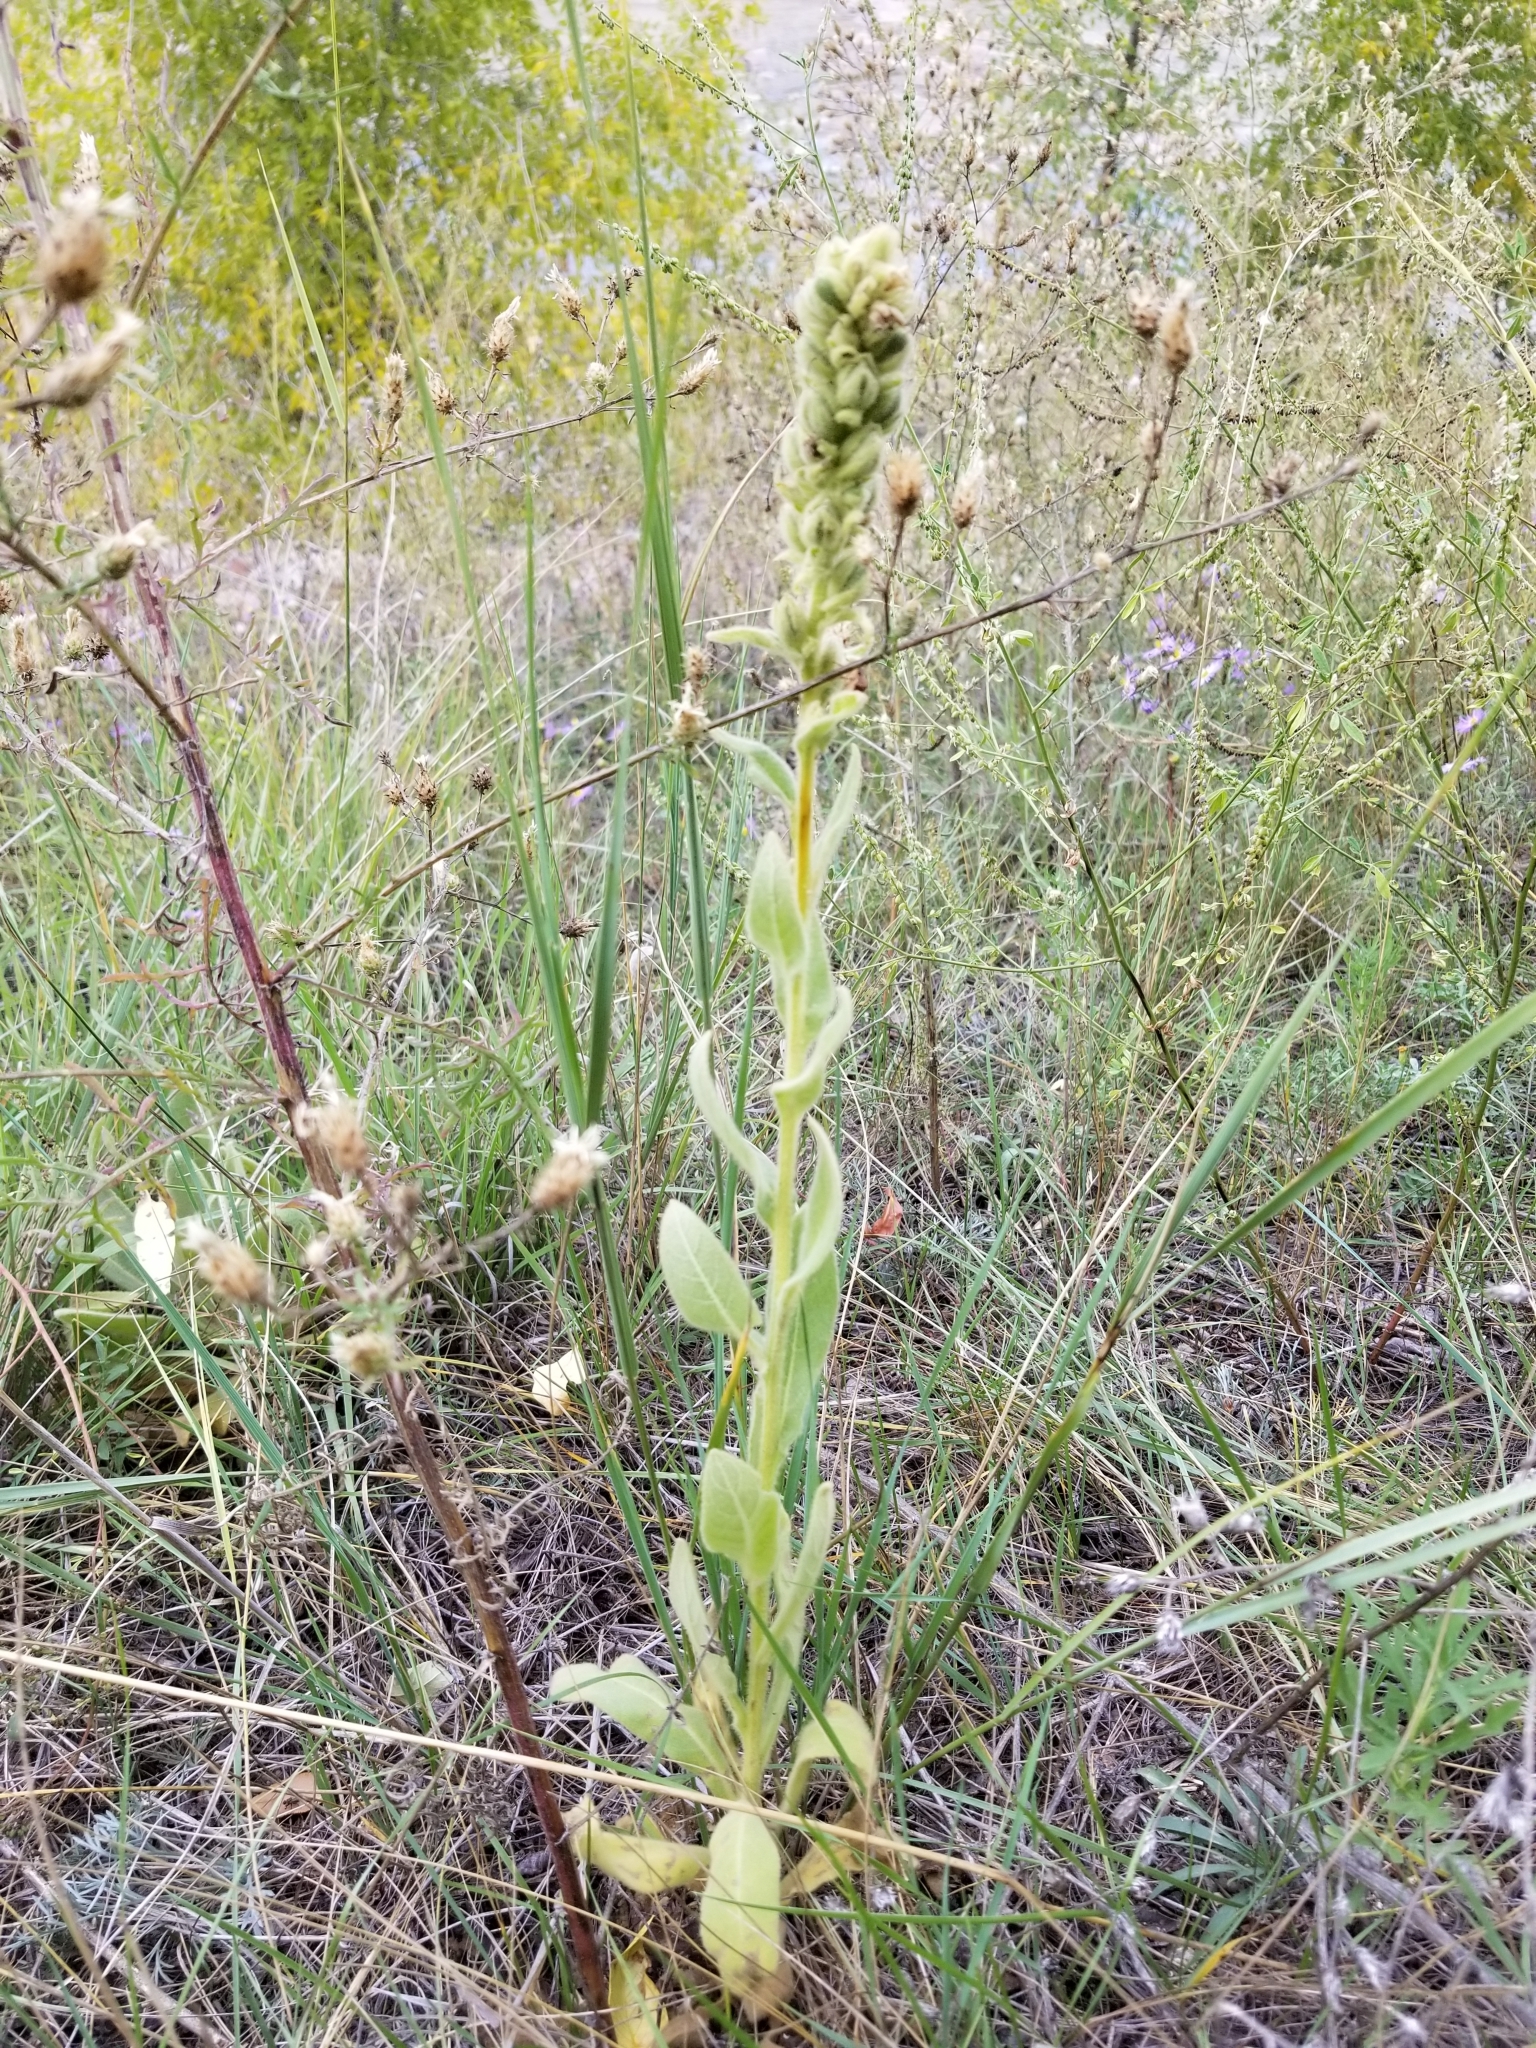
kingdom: Plantae
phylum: Tracheophyta
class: Magnoliopsida
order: Lamiales
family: Scrophulariaceae
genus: Verbascum
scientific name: Verbascum thapsus
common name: Common mullein
